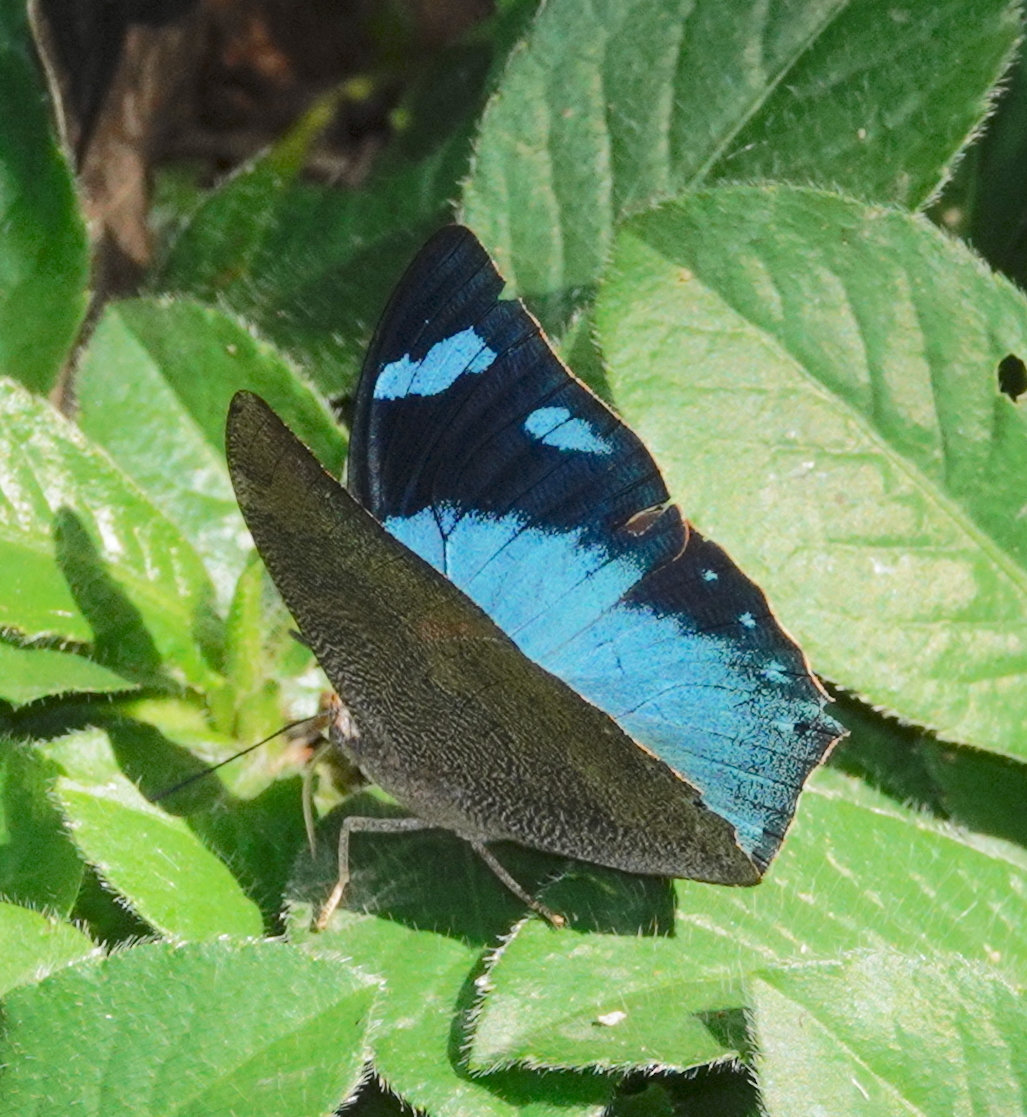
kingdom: Animalia
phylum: Arthropoda
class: Insecta
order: Lepidoptera
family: Nymphalidae
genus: Anaea
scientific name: Anaea glauce
